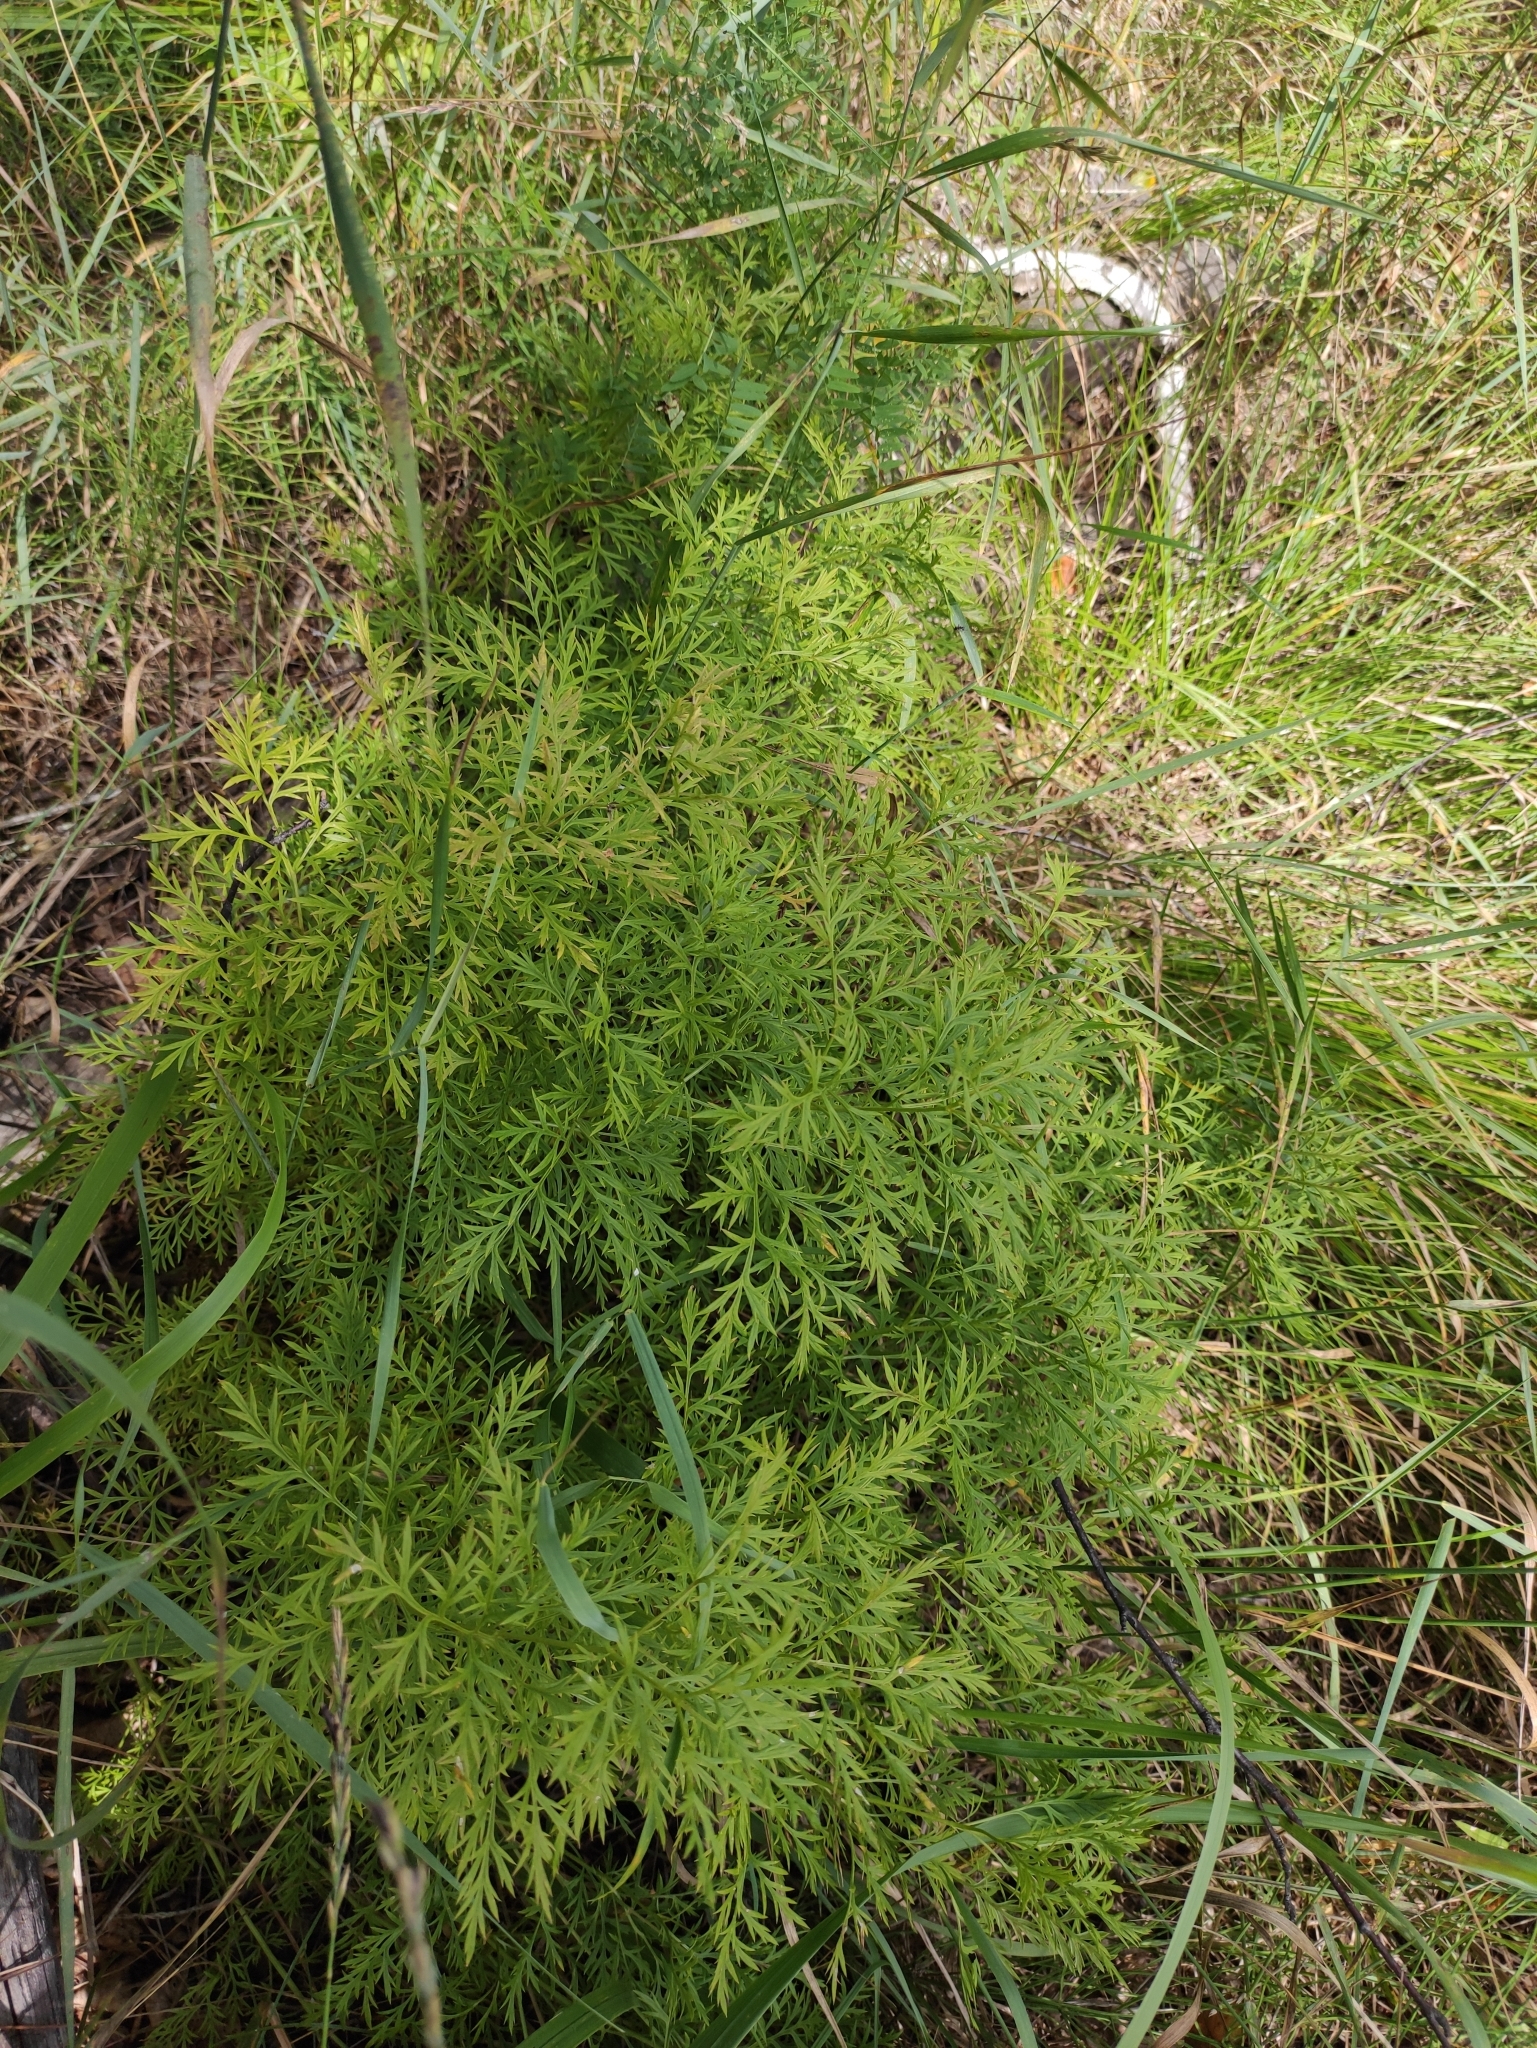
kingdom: Plantae
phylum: Tracheophyta
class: Magnoliopsida
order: Ranunculales
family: Ranunculaceae
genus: Adonis
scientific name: Adonis
